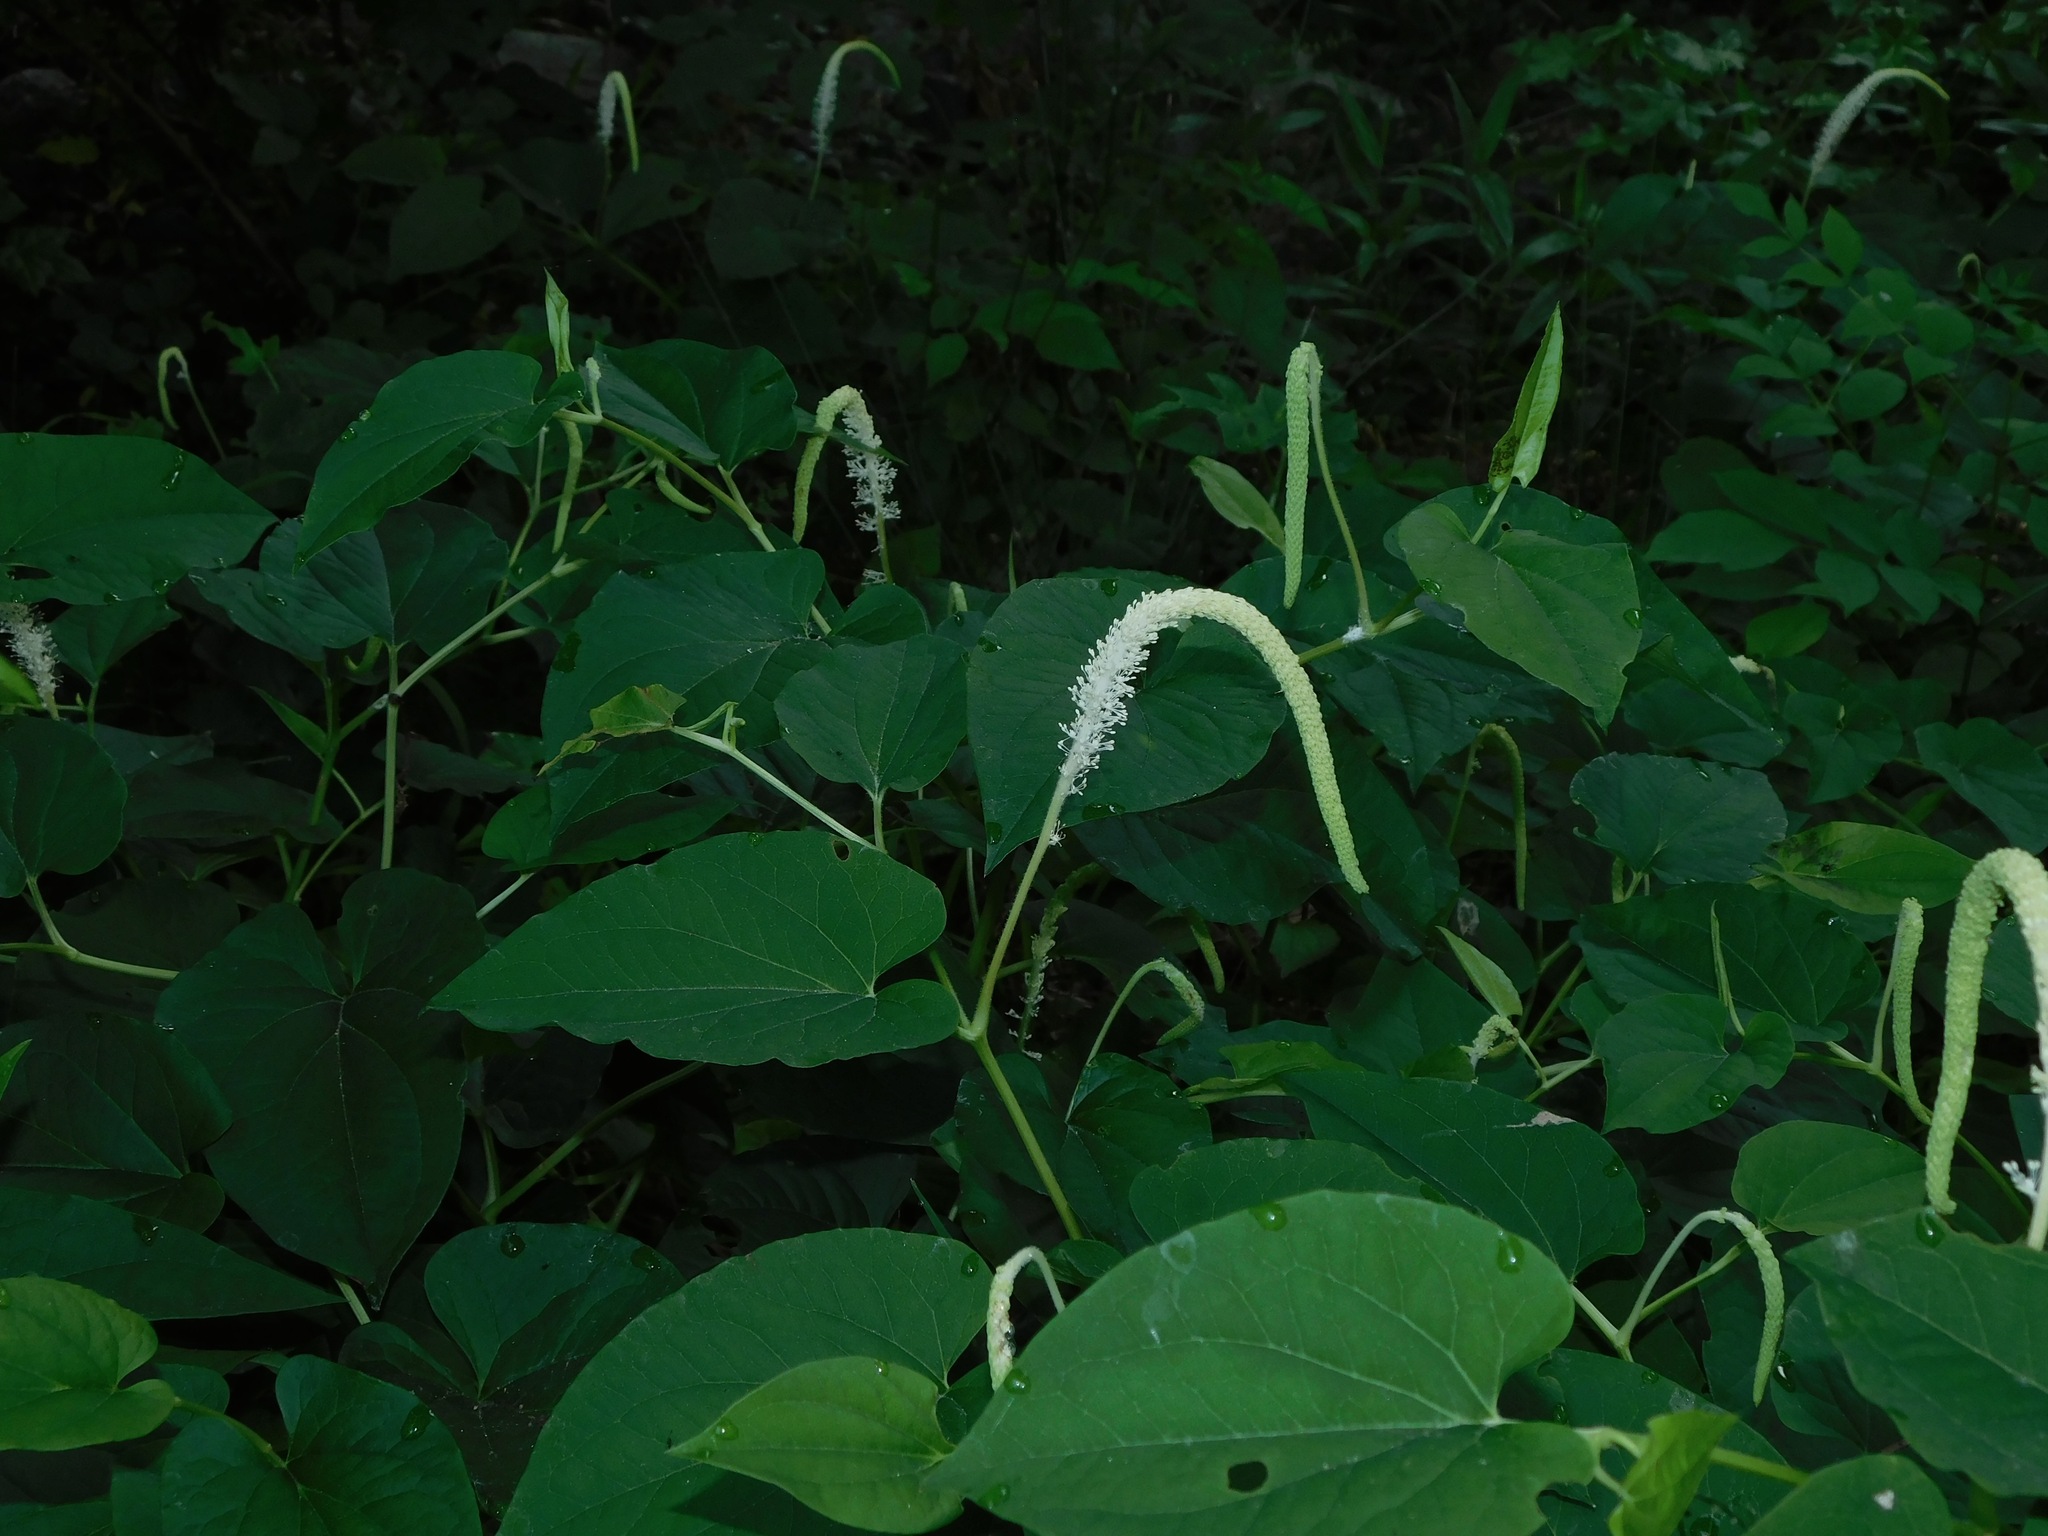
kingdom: Plantae
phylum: Tracheophyta
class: Magnoliopsida
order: Piperales
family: Saururaceae
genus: Saururus
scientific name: Saururus cernuus
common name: Lizard's-tail
